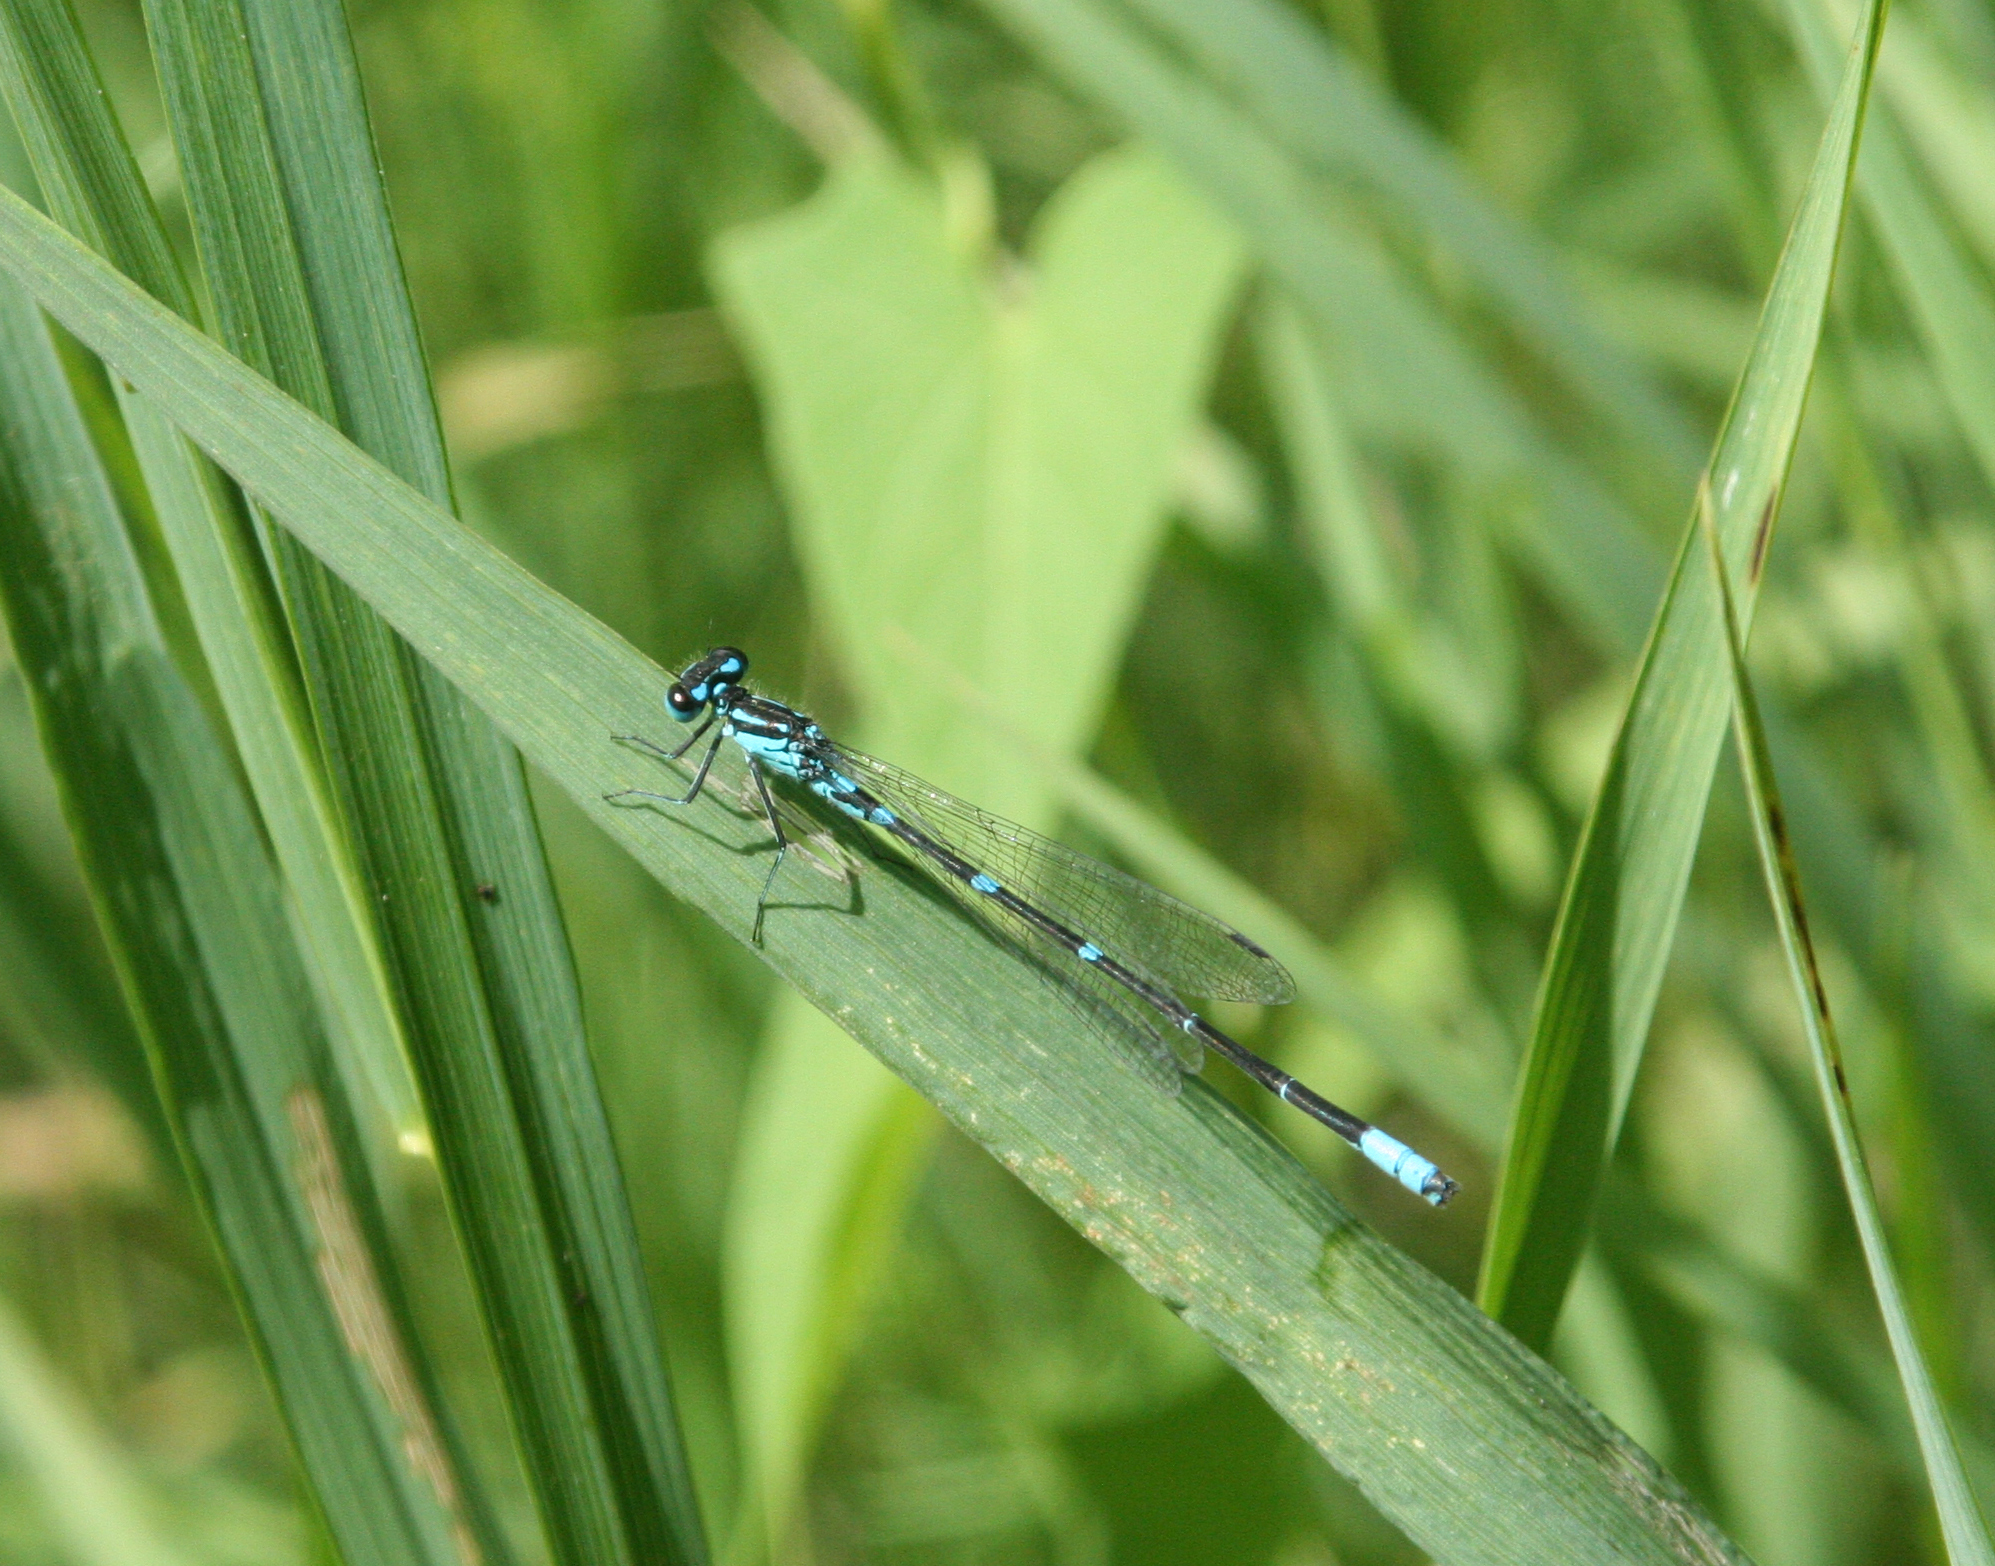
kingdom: Animalia
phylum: Arthropoda
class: Insecta
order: Odonata
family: Coenagrionidae
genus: Coenagrion
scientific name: Coenagrion pulchellum
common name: Variable bluet
